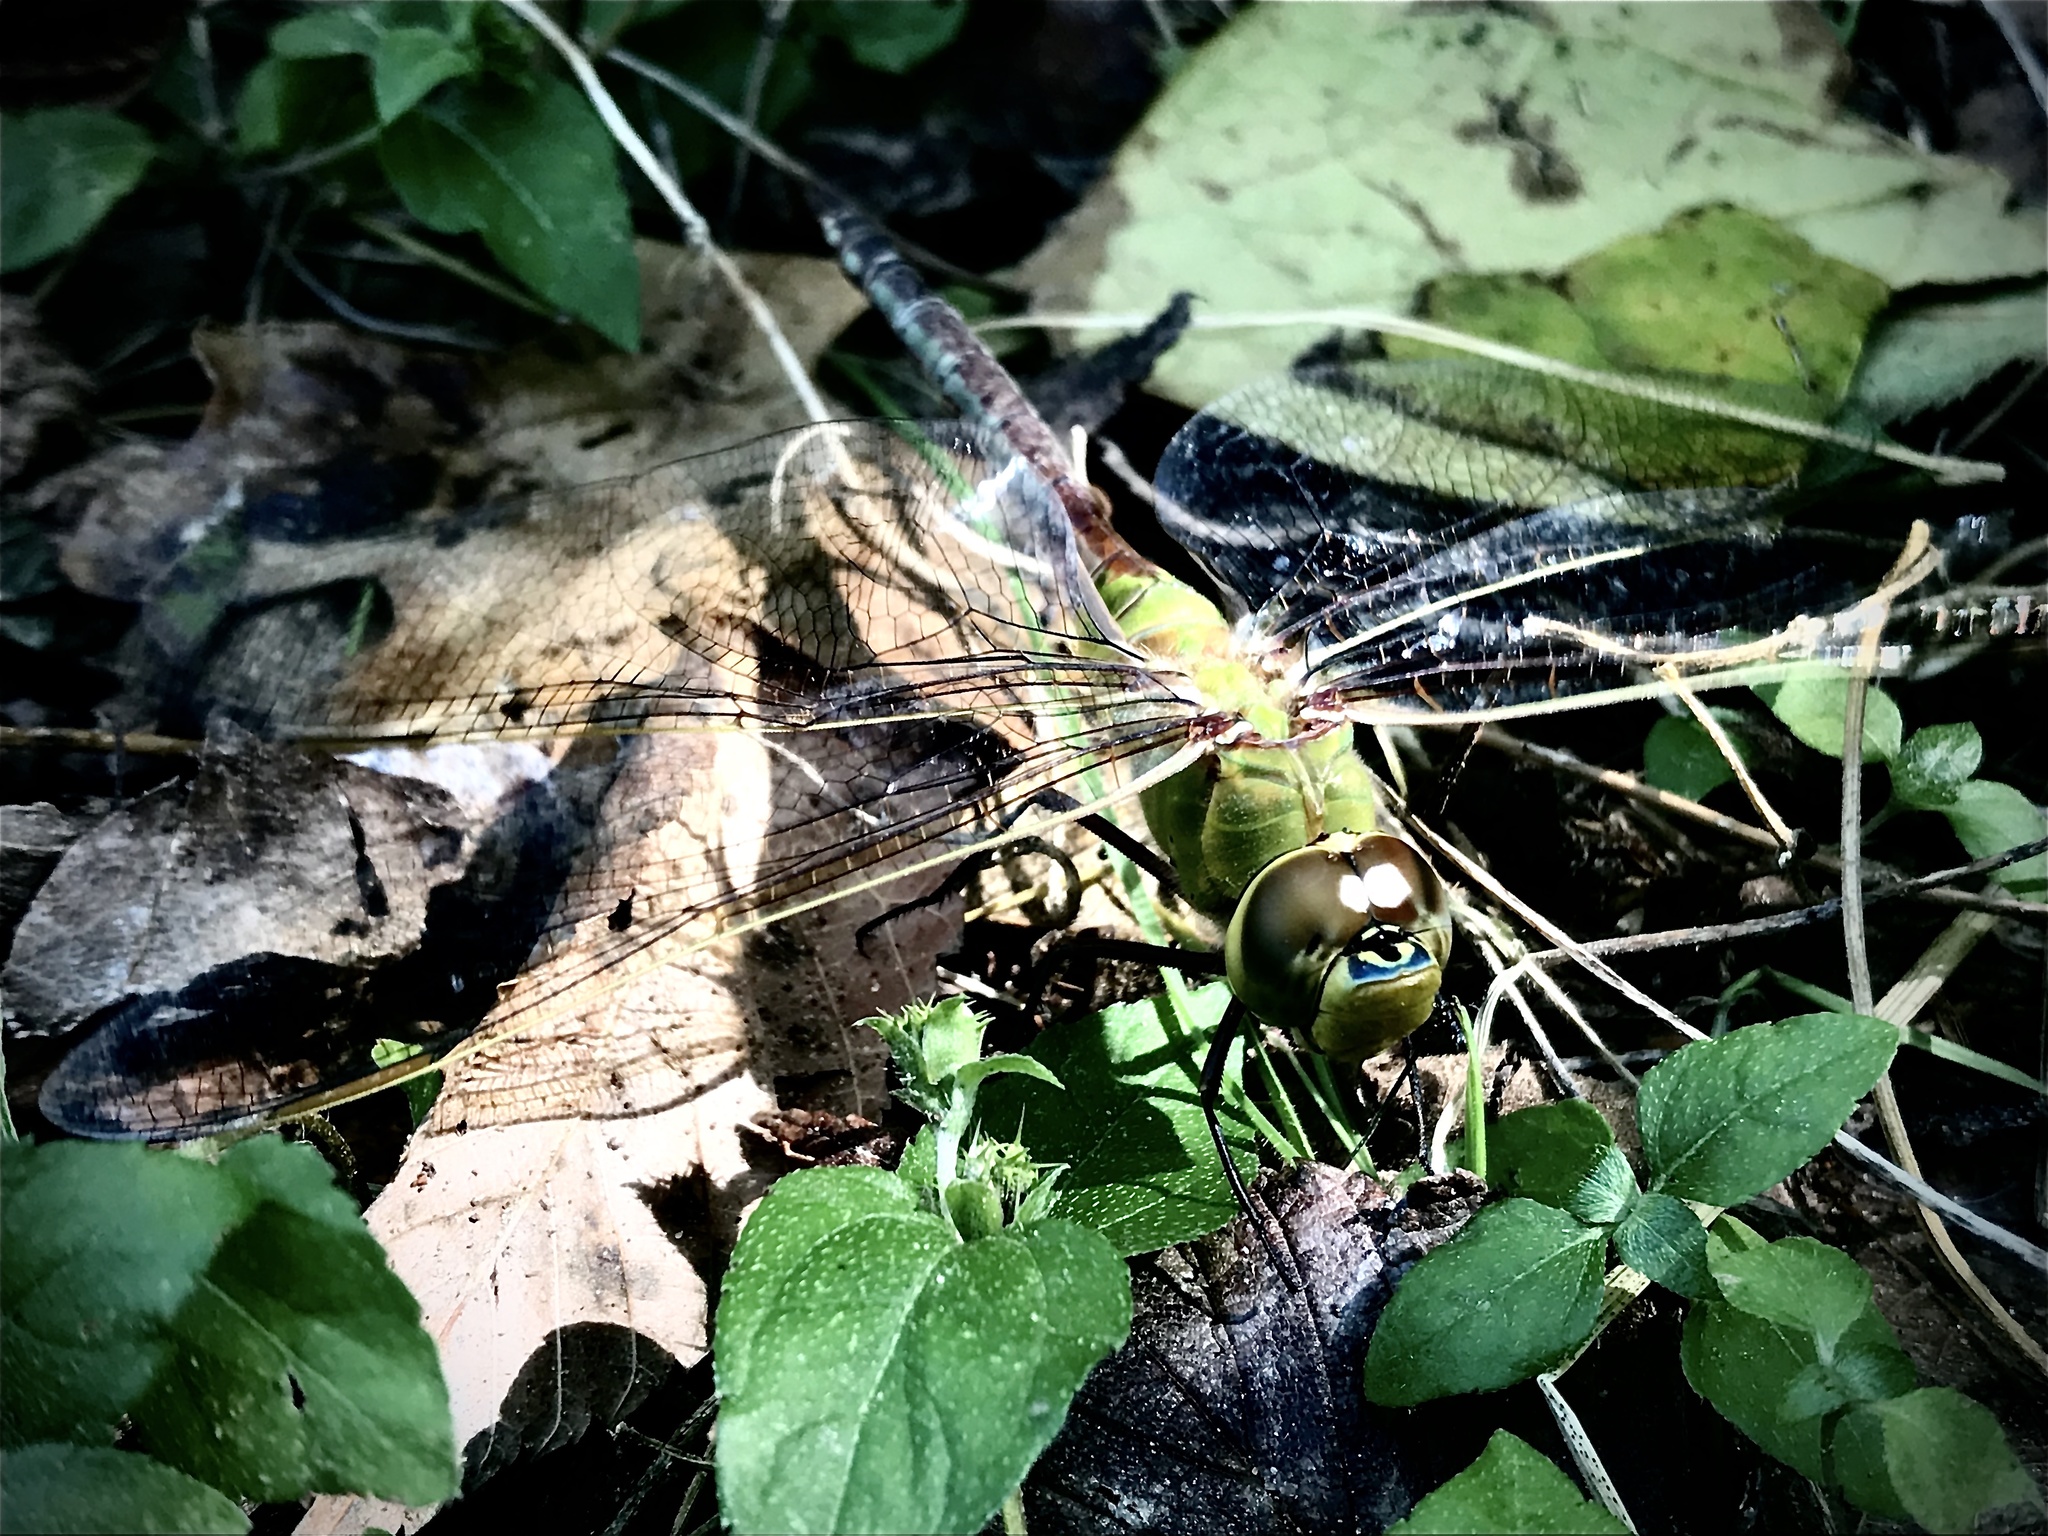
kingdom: Animalia
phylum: Arthropoda
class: Insecta
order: Odonata
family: Aeshnidae
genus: Anax
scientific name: Anax junius
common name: Common green darner
